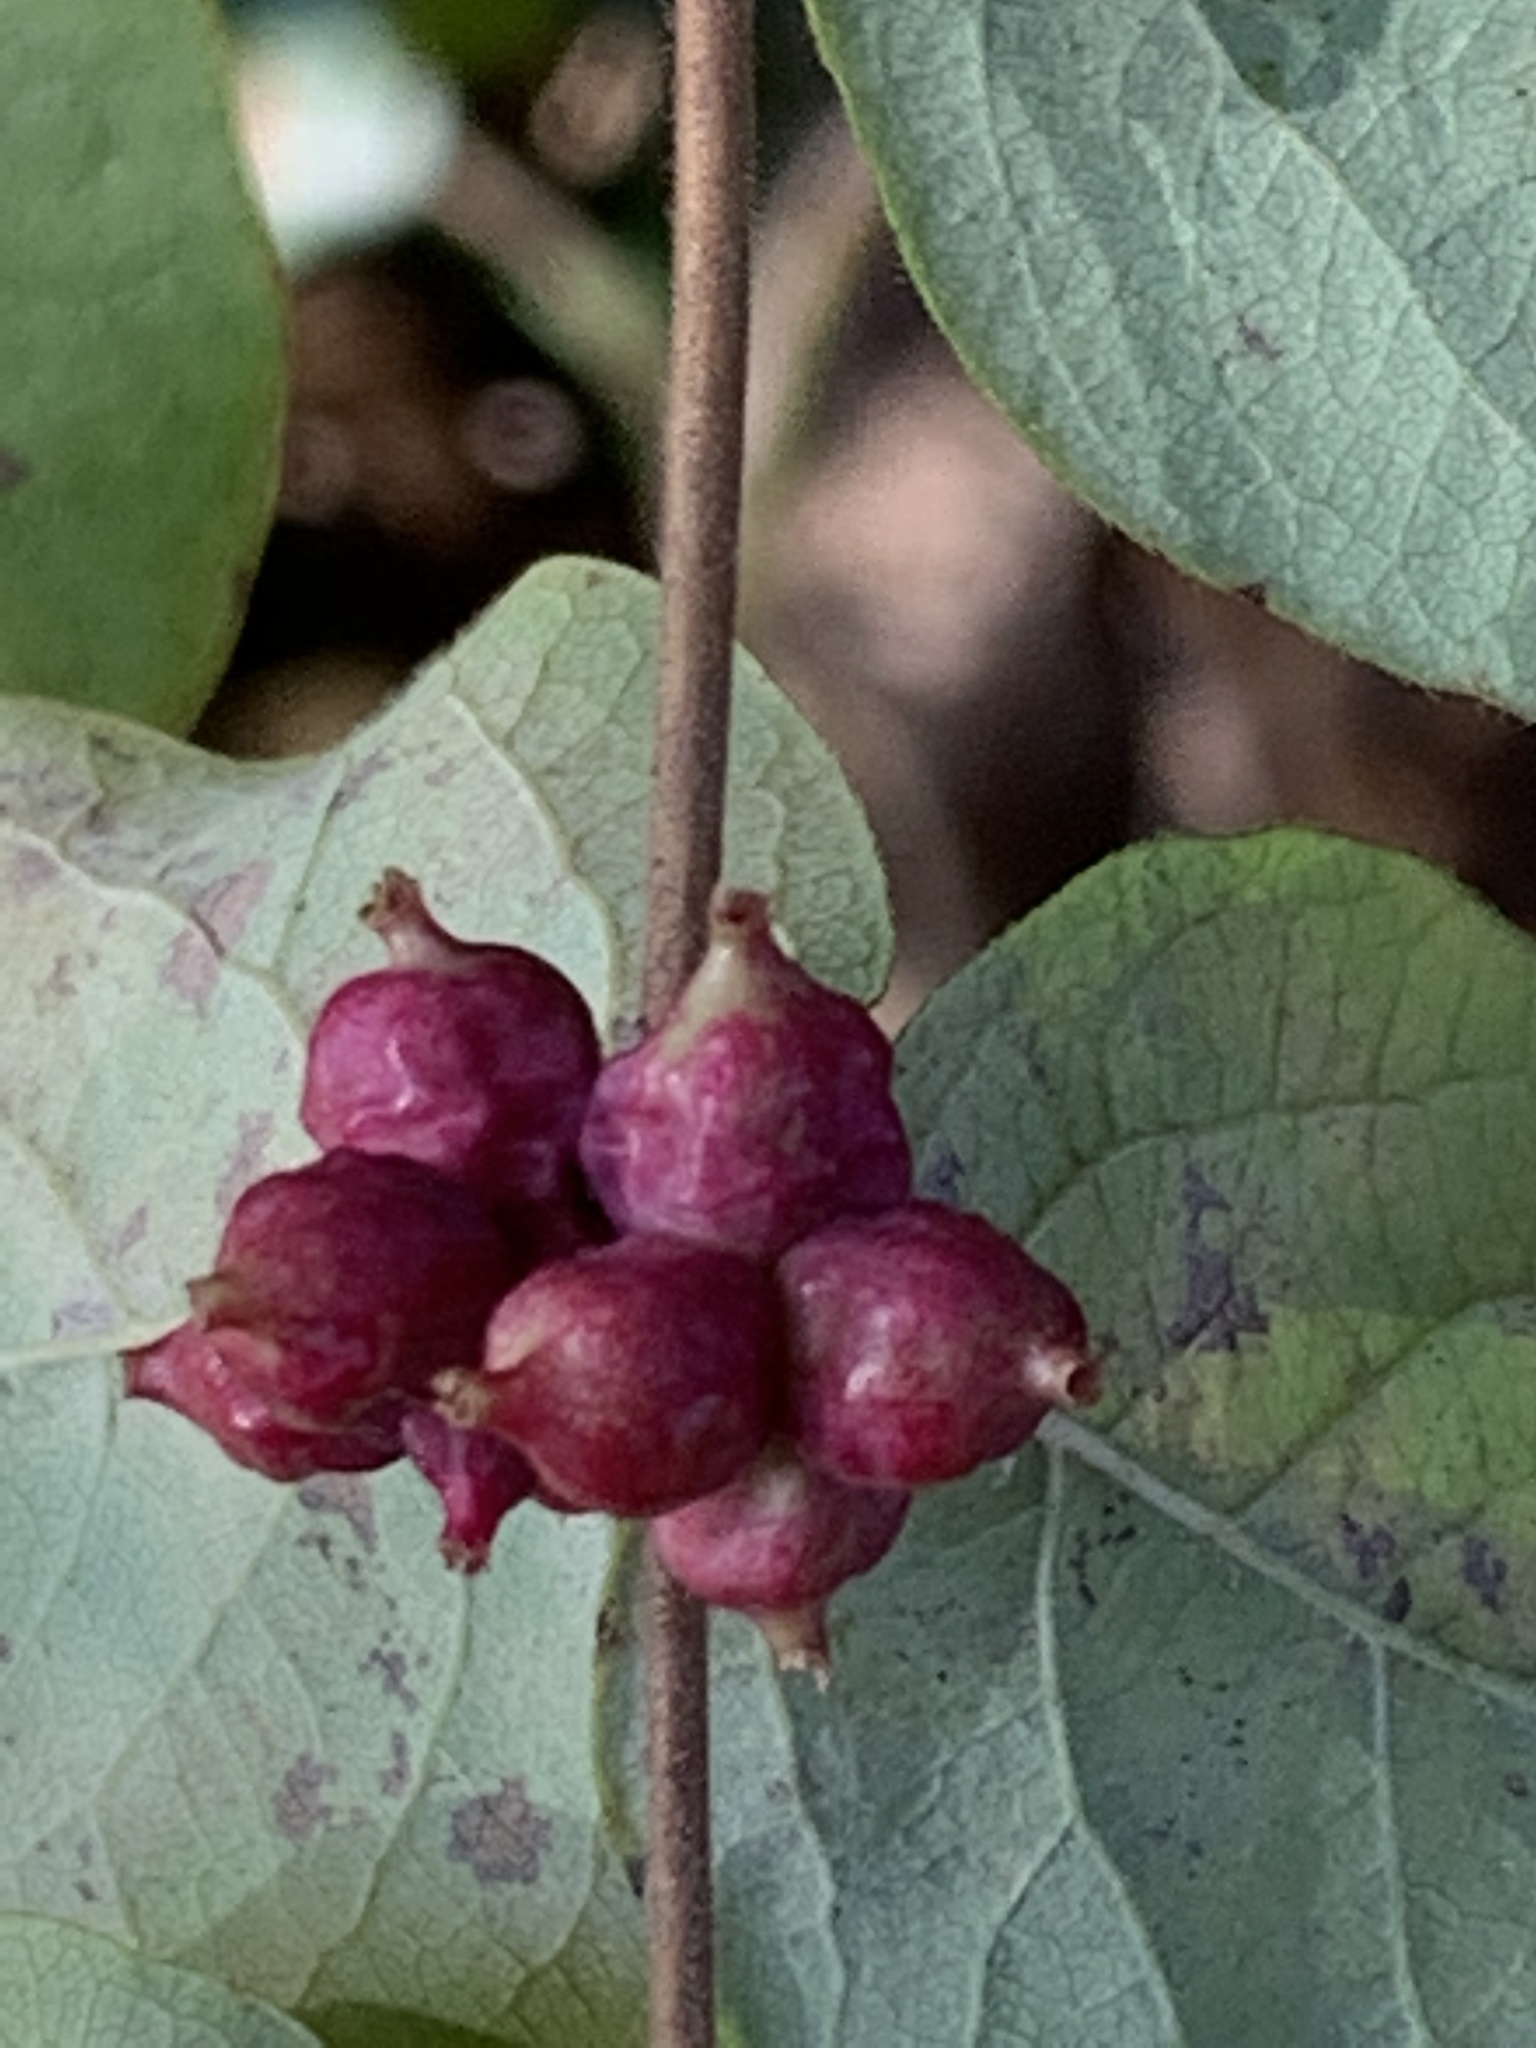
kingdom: Plantae
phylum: Tracheophyta
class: Magnoliopsida
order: Dipsacales
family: Caprifoliaceae
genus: Symphoricarpos
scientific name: Symphoricarpos orbiculatus
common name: Coralberry
